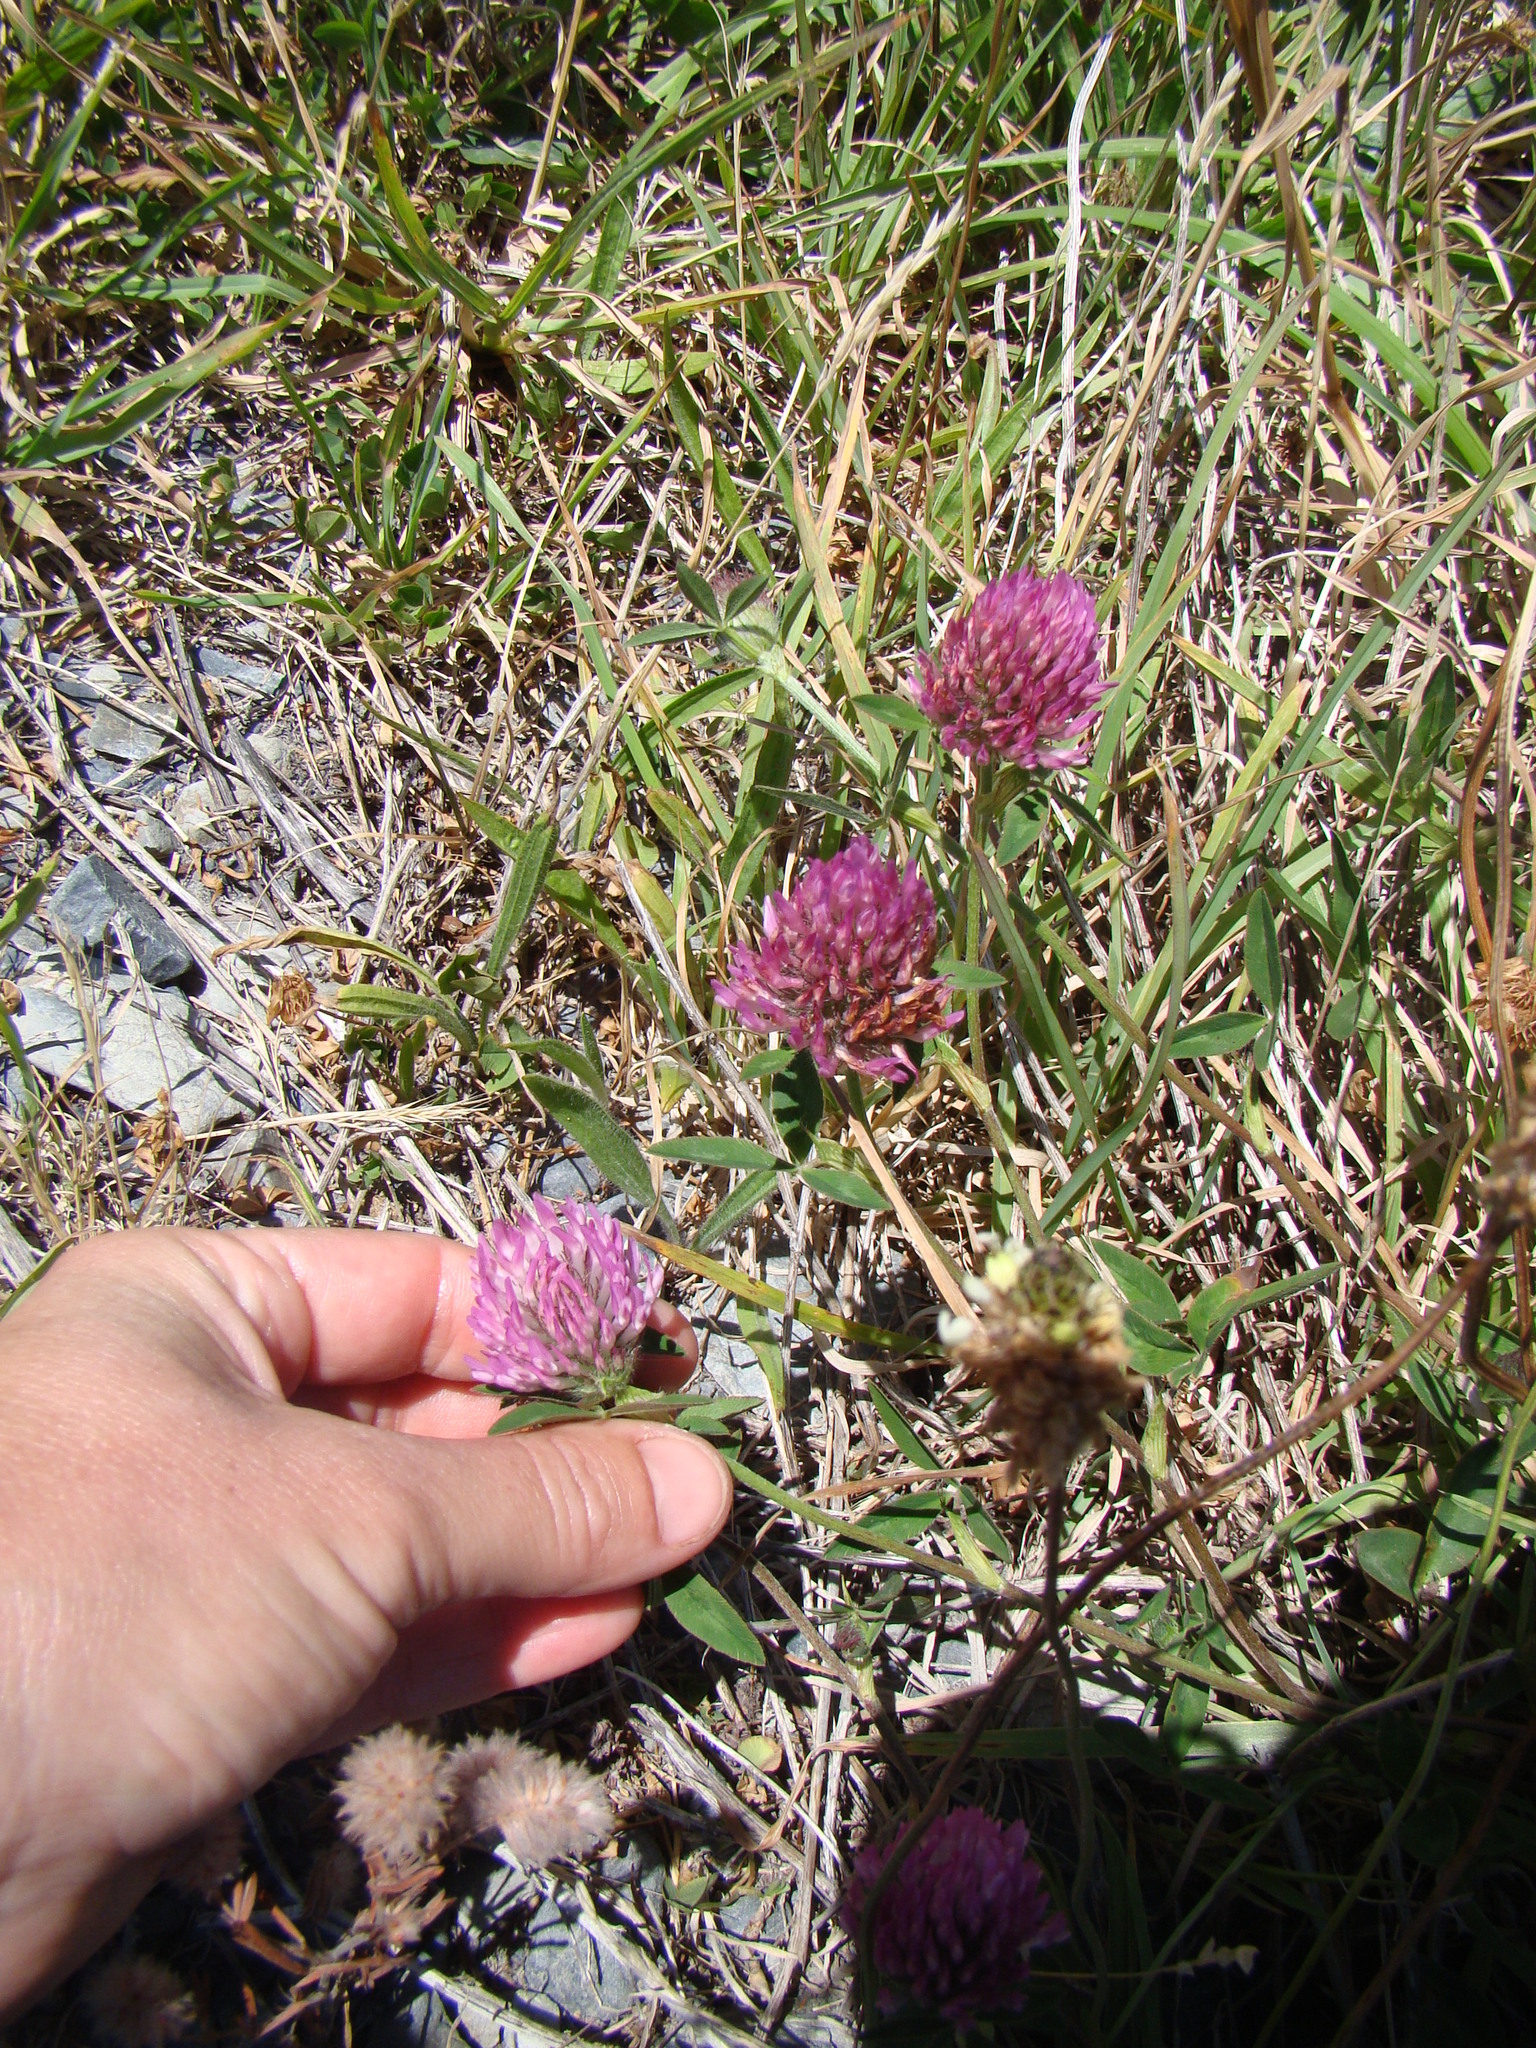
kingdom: Plantae
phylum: Tracheophyta
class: Magnoliopsida
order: Fabales
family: Fabaceae
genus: Trifolium
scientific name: Trifolium pratense
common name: Red clover
